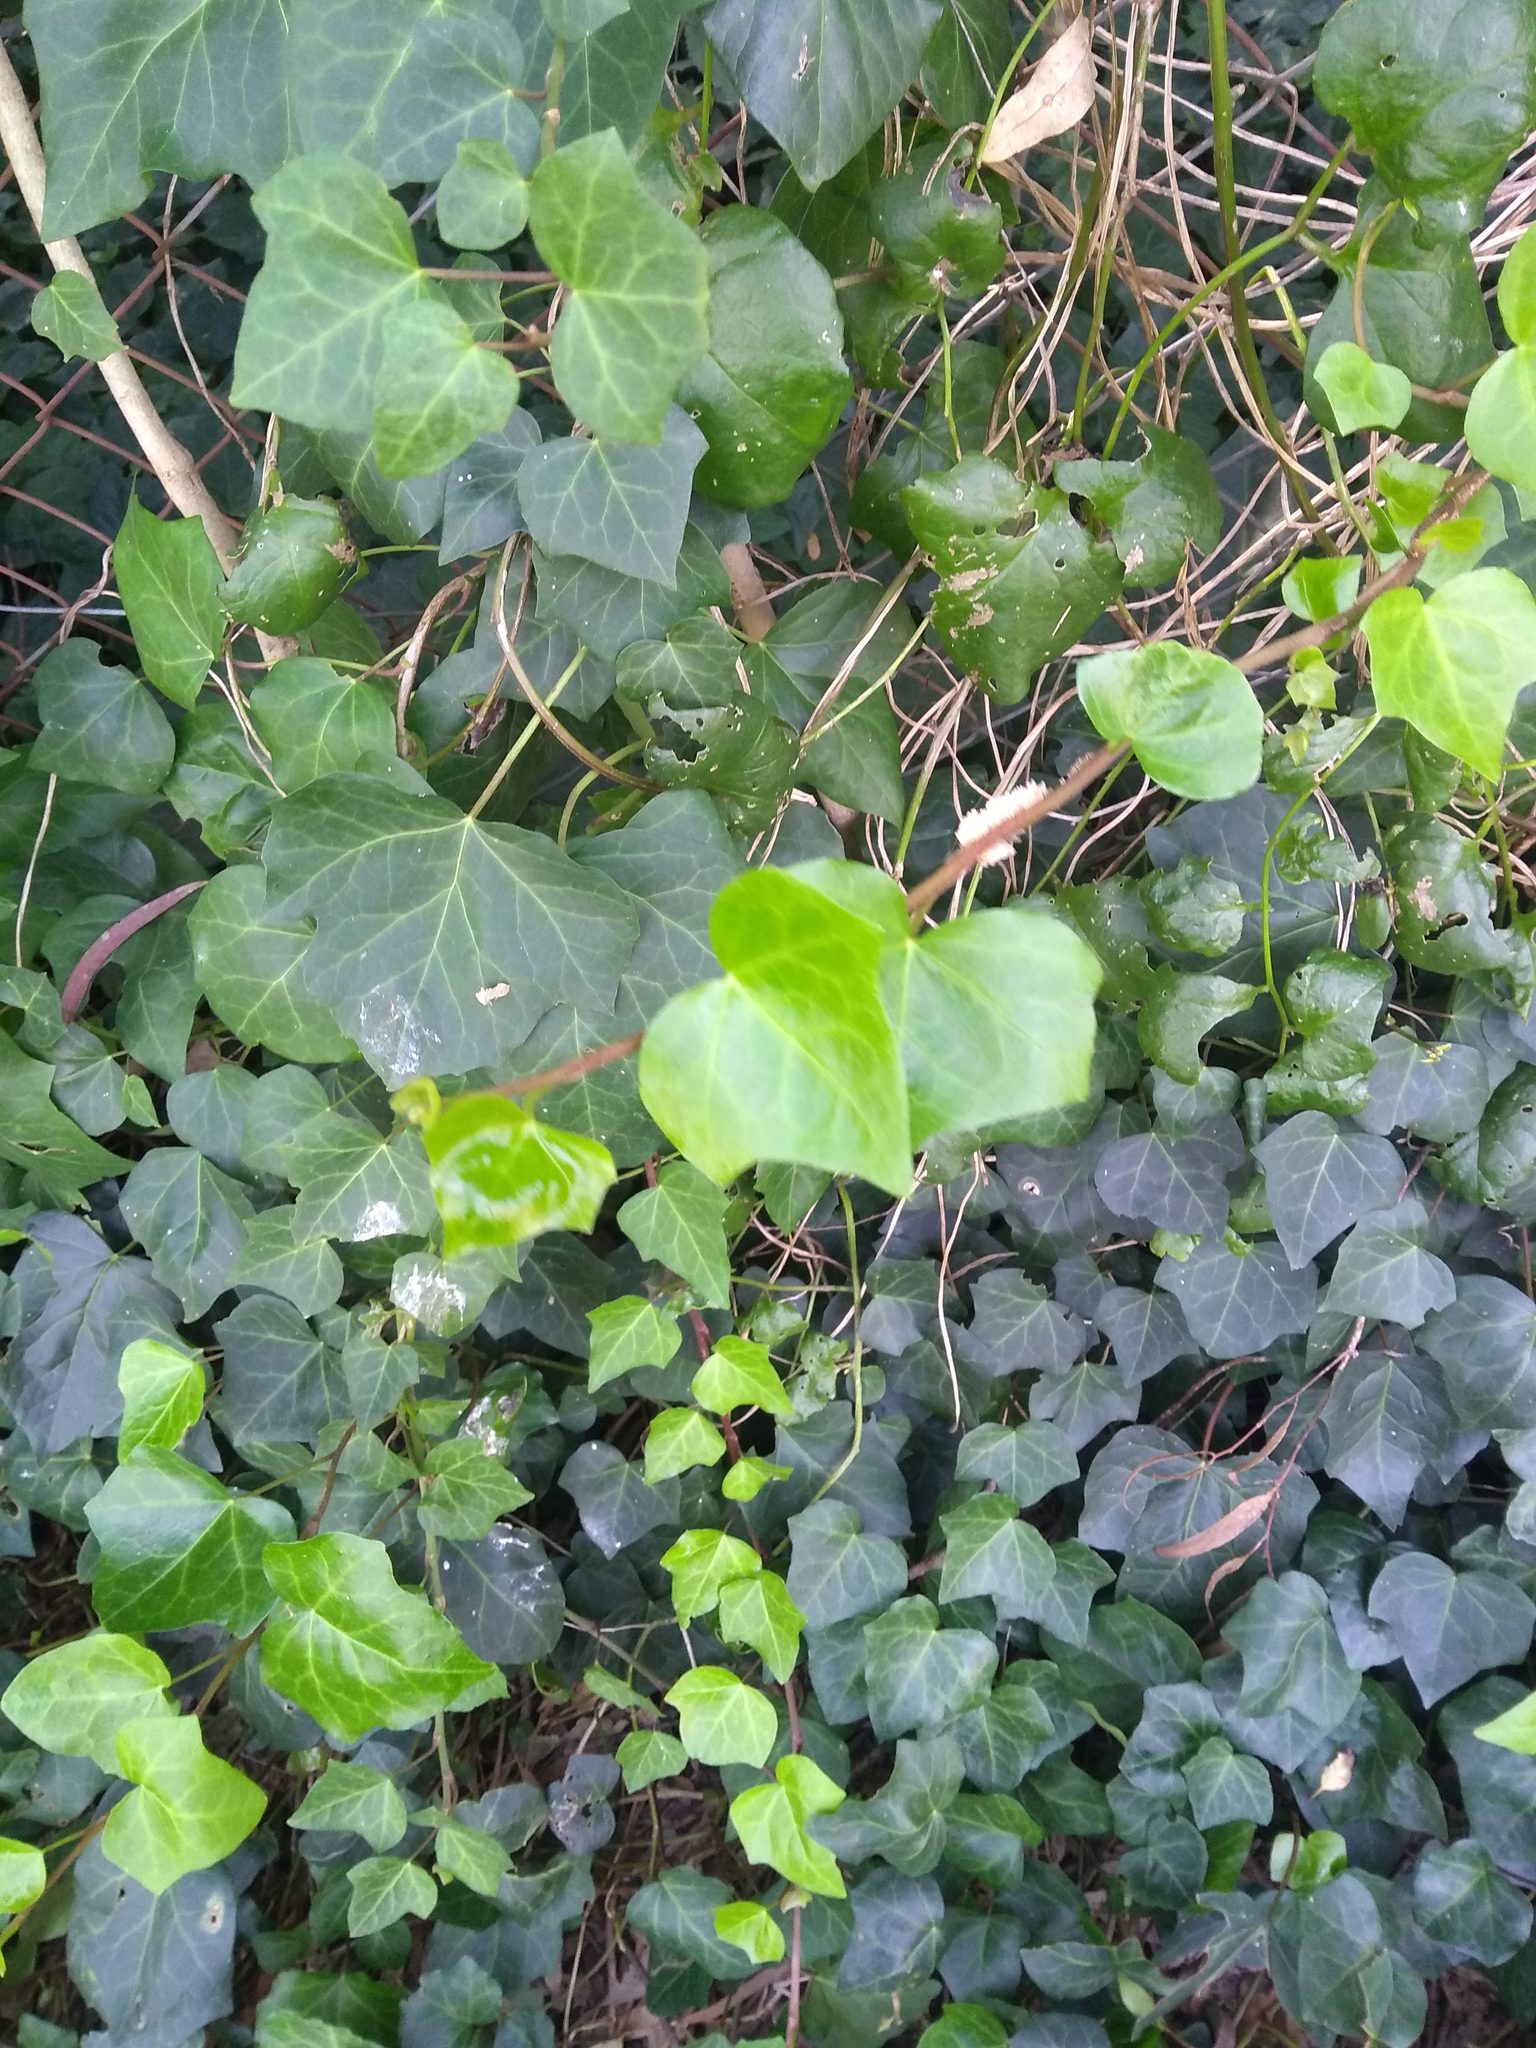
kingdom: Plantae
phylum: Tracheophyta
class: Magnoliopsida
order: Apiales
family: Araliaceae
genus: Hedera
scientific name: Hedera helix
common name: Ivy
